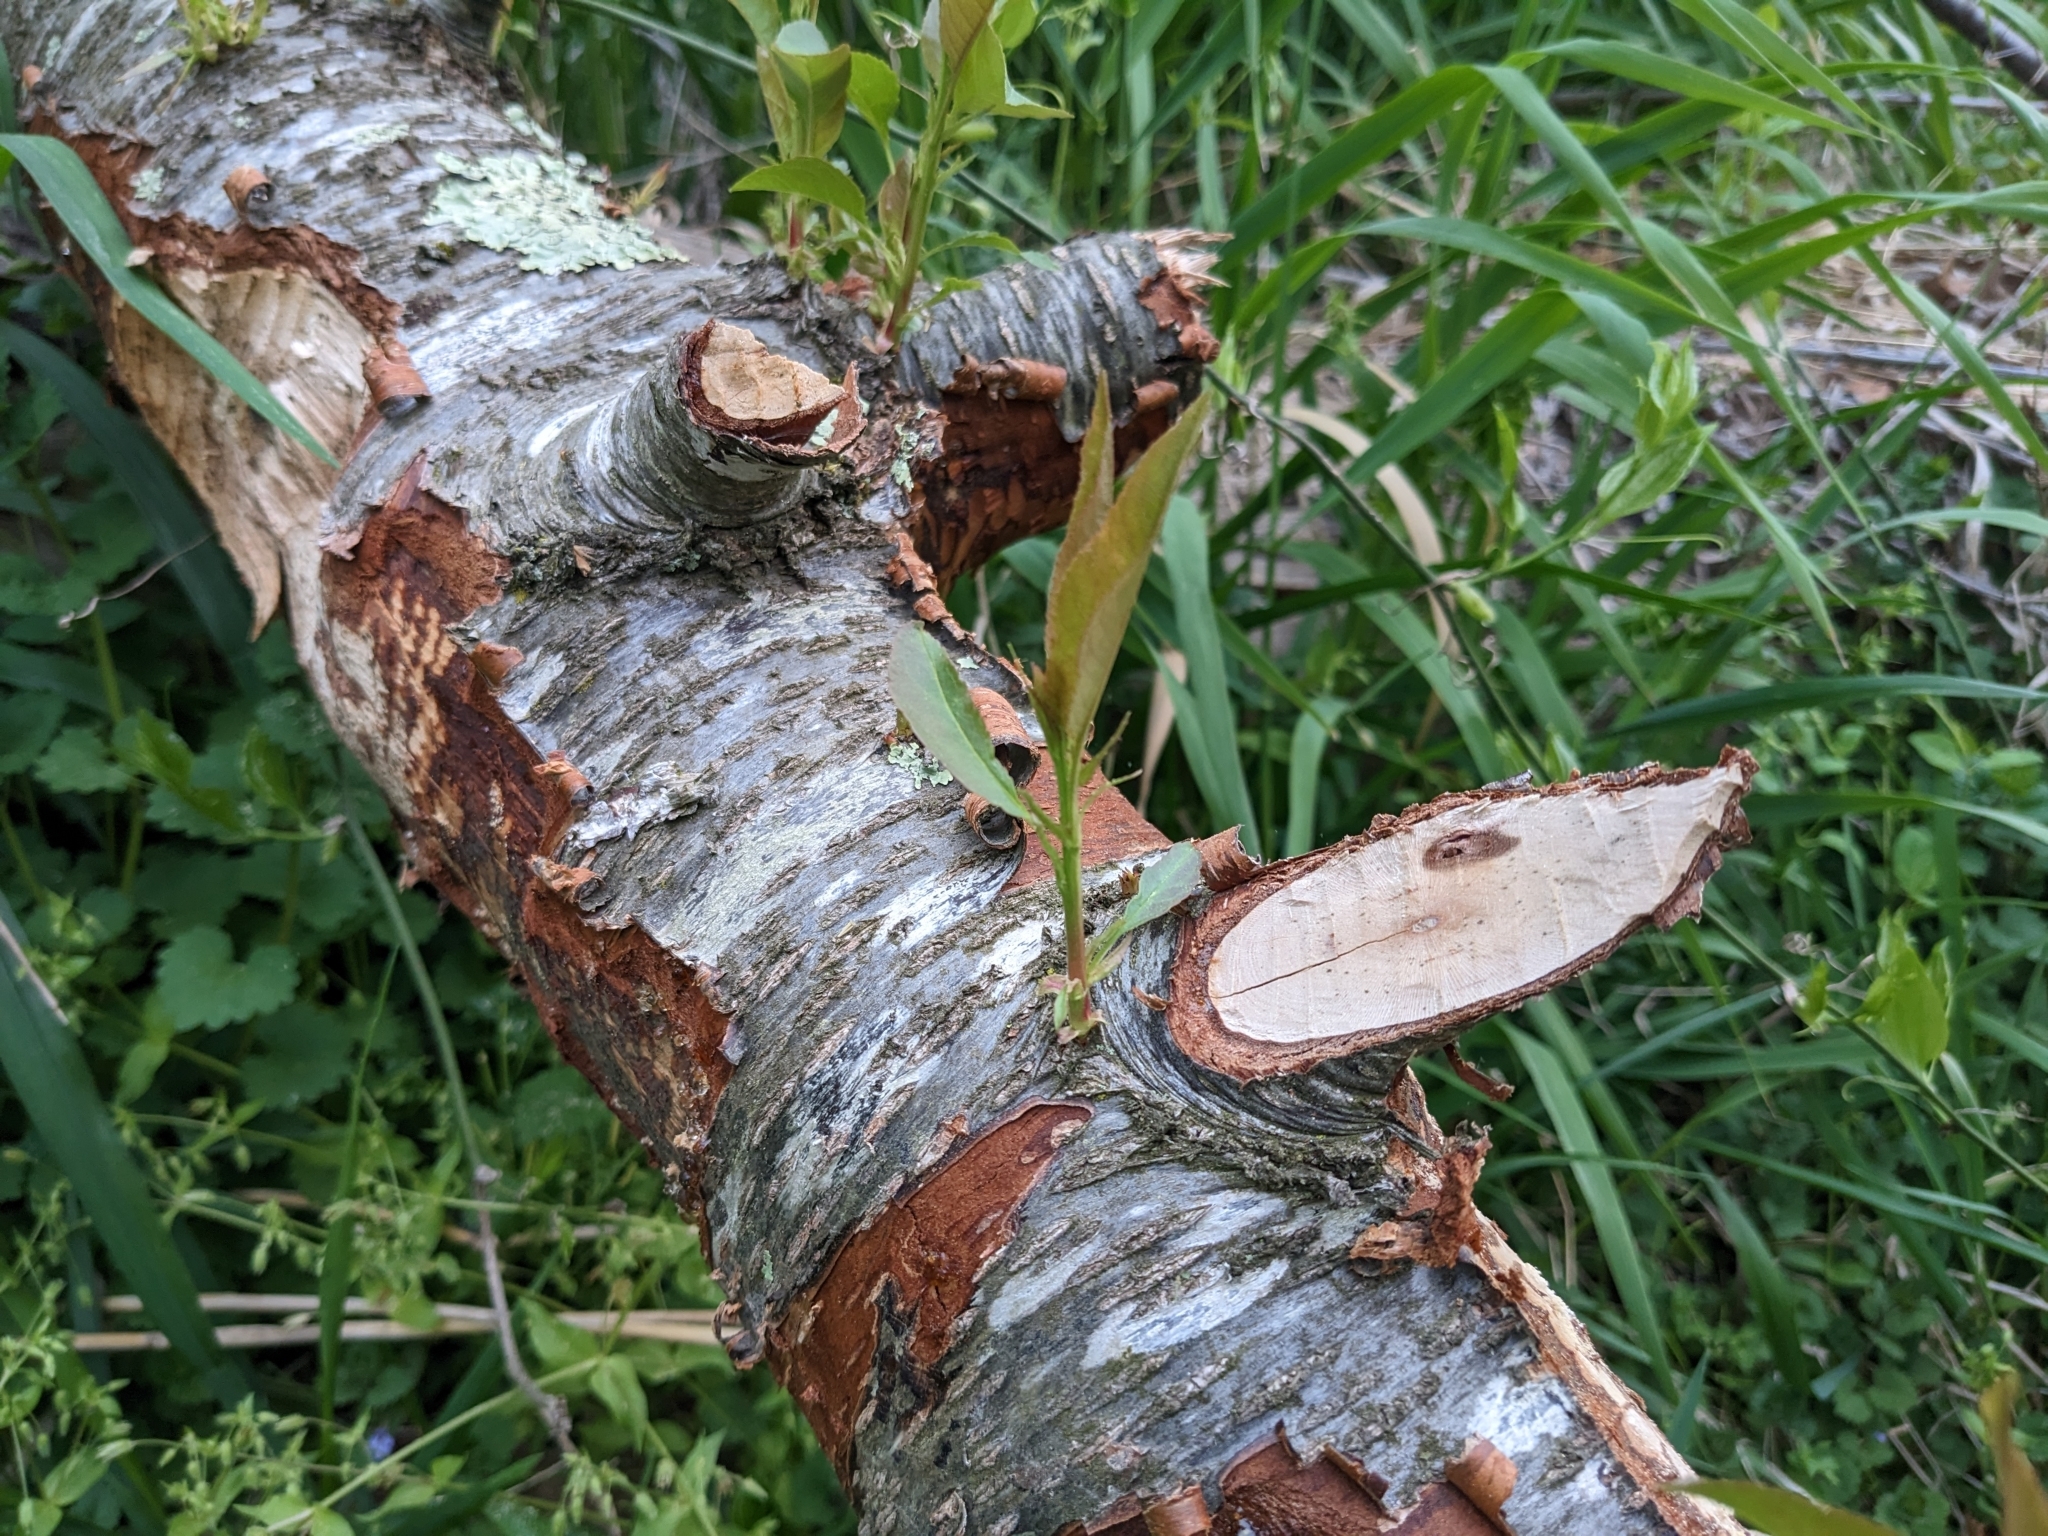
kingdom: Animalia
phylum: Chordata
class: Mammalia
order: Rodentia
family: Castoridae
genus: Castor
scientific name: Castor canadensis
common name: American beaver
